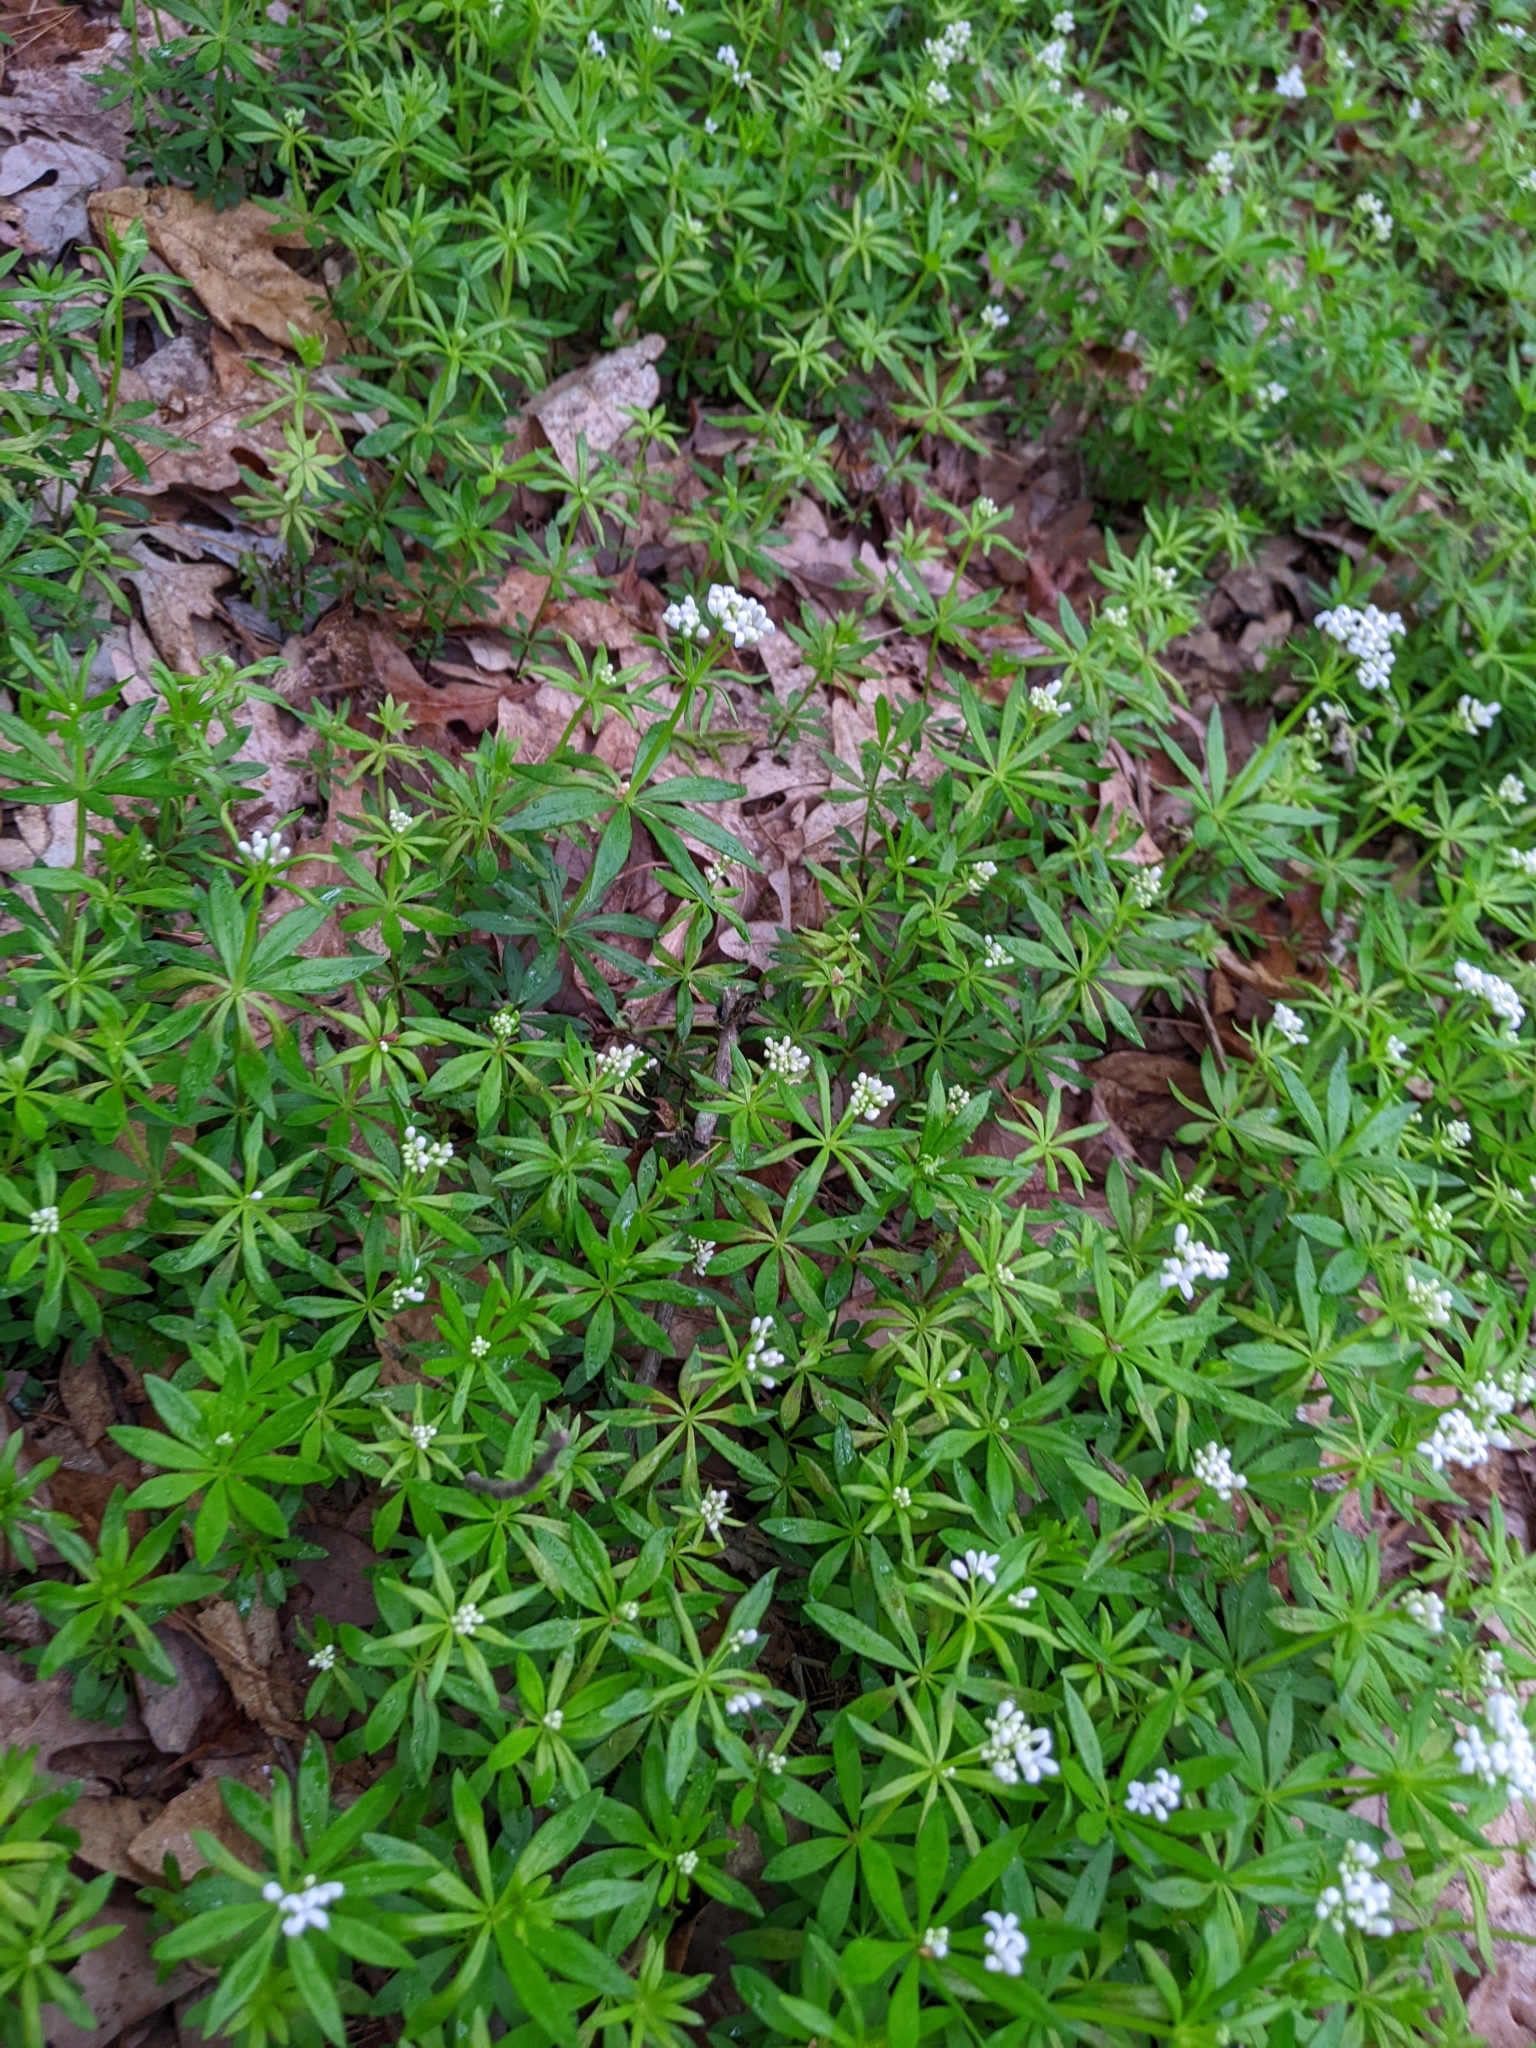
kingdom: Plantae
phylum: Tracheophyta
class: Magnoliopsida
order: Gentianales
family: Rubiaceae
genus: Galium
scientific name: Galium odoratum
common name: Sweet woodruff
